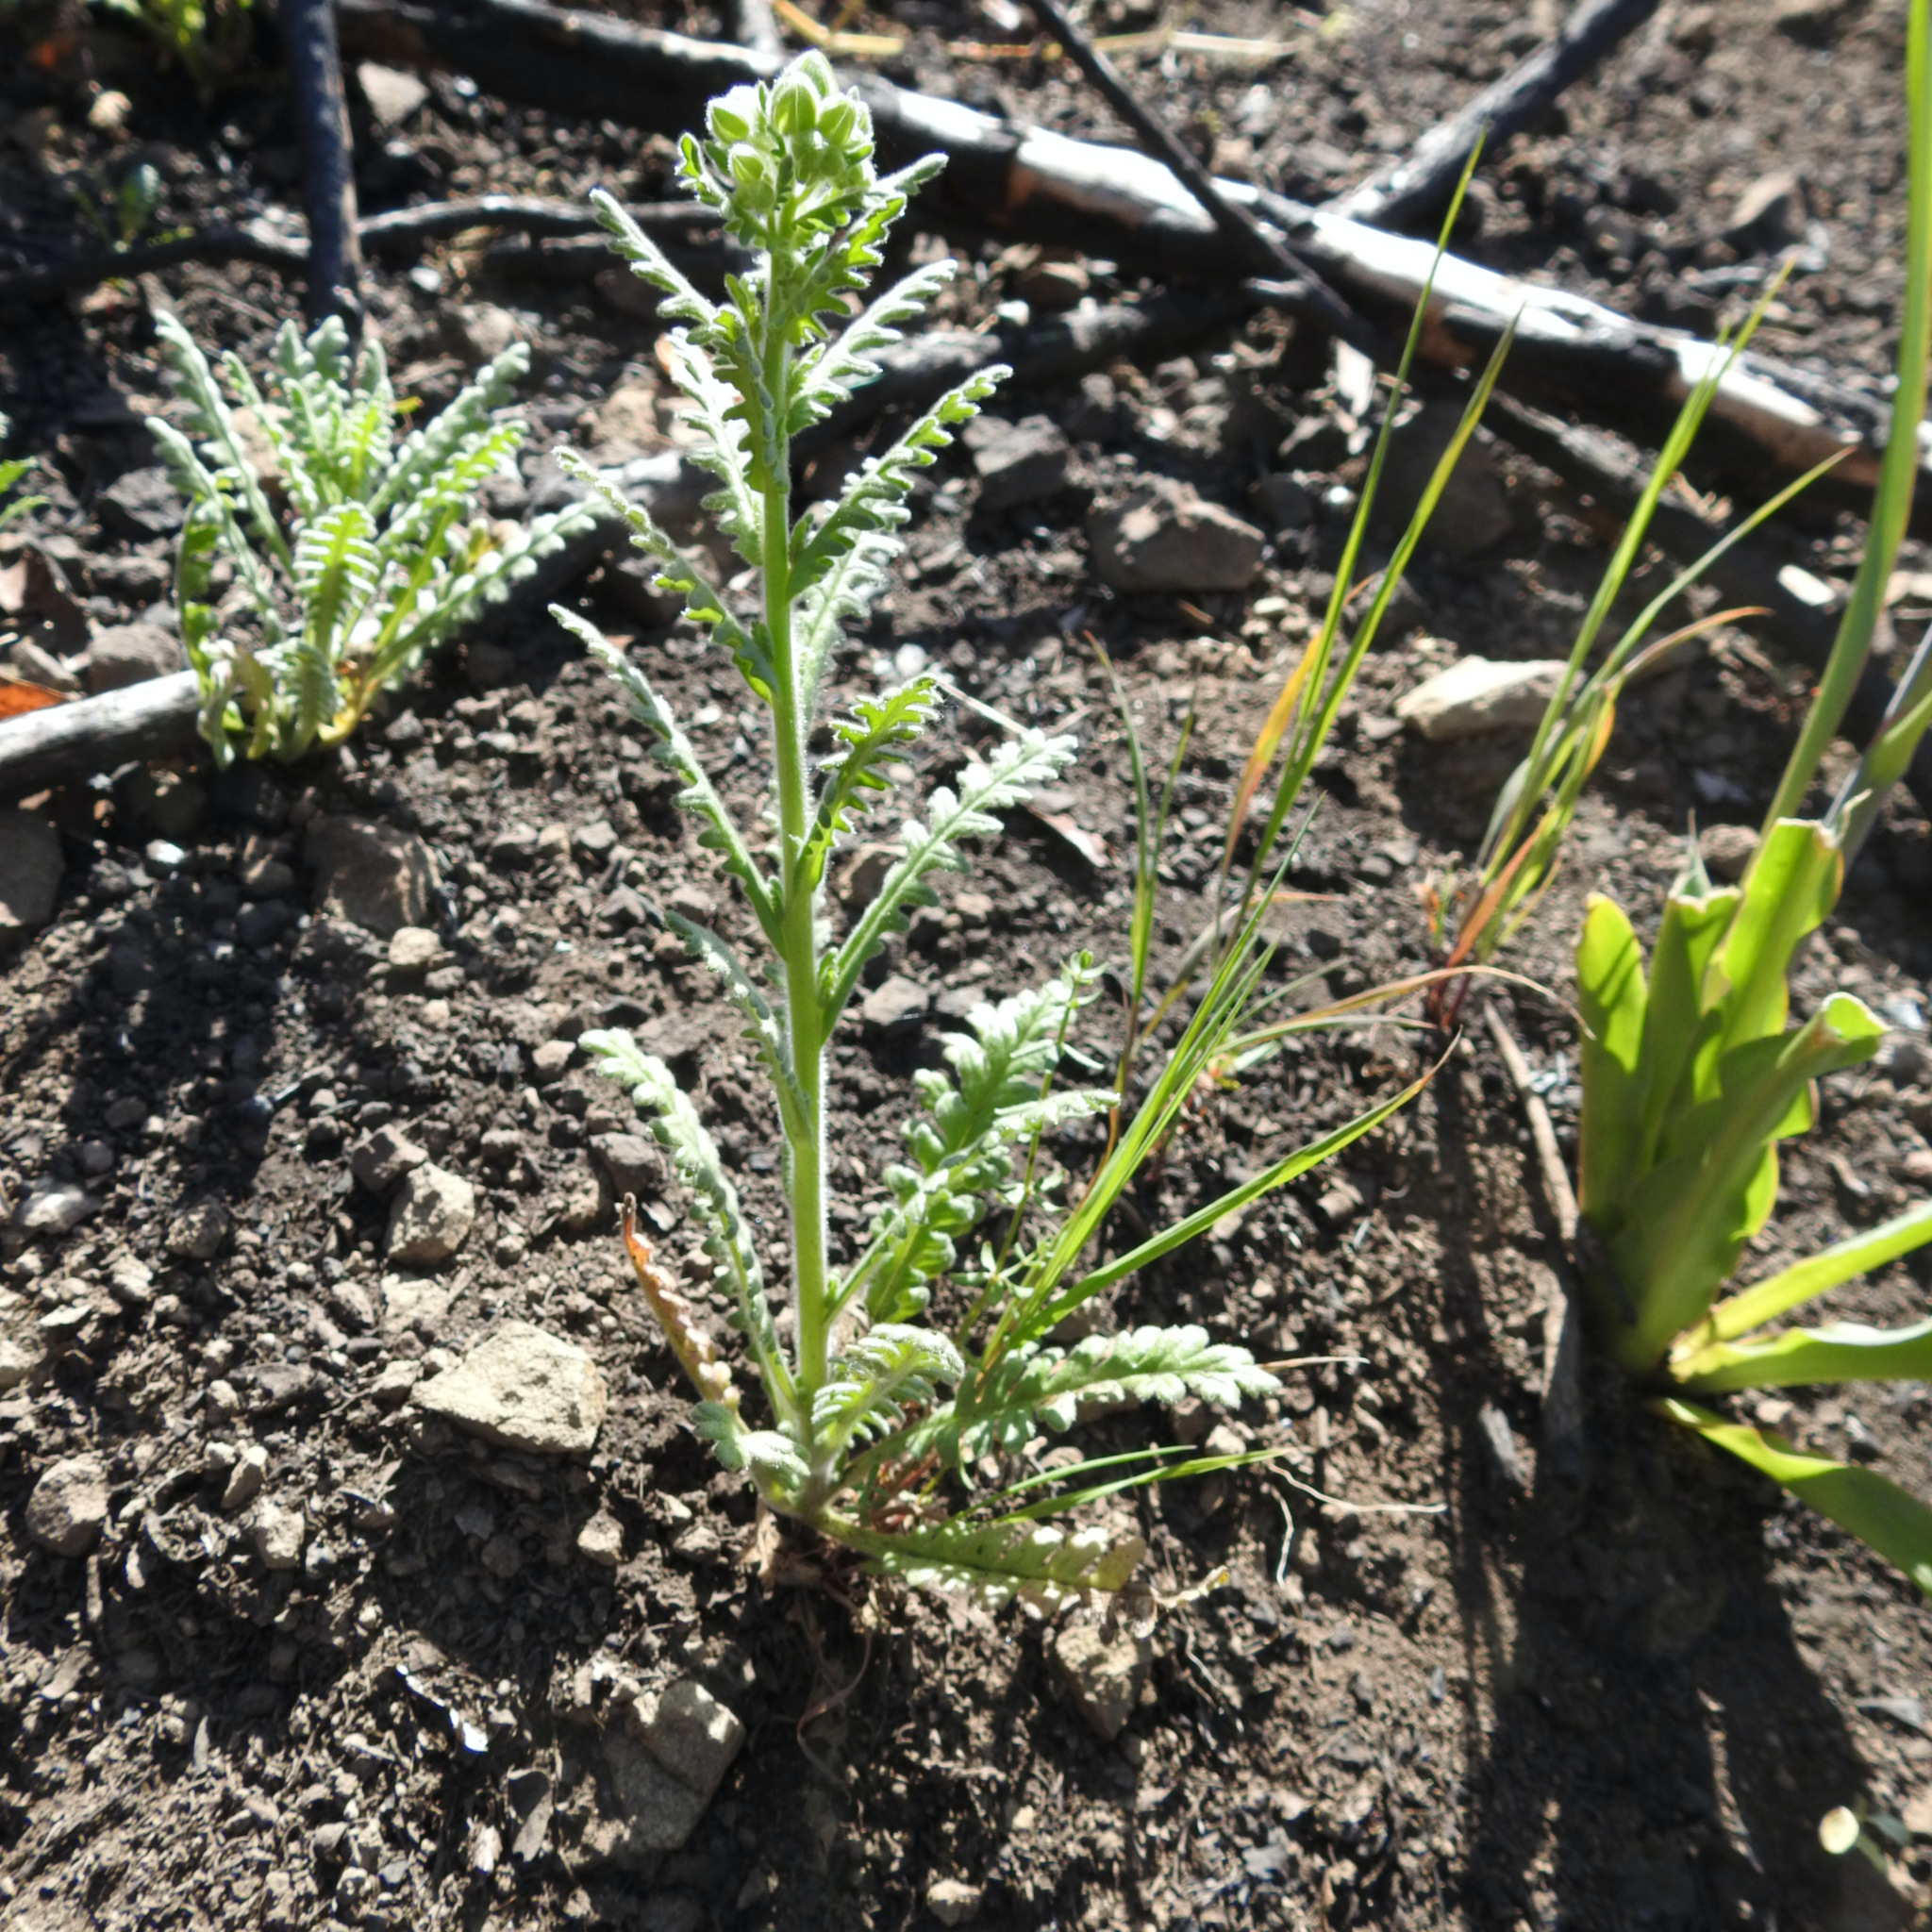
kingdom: Plantae
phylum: Tracheophyta
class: Liliopsida
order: Asparagales
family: Asparagaceae
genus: Chlorogalum
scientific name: Chlorogalum pomeridianum
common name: Amole
